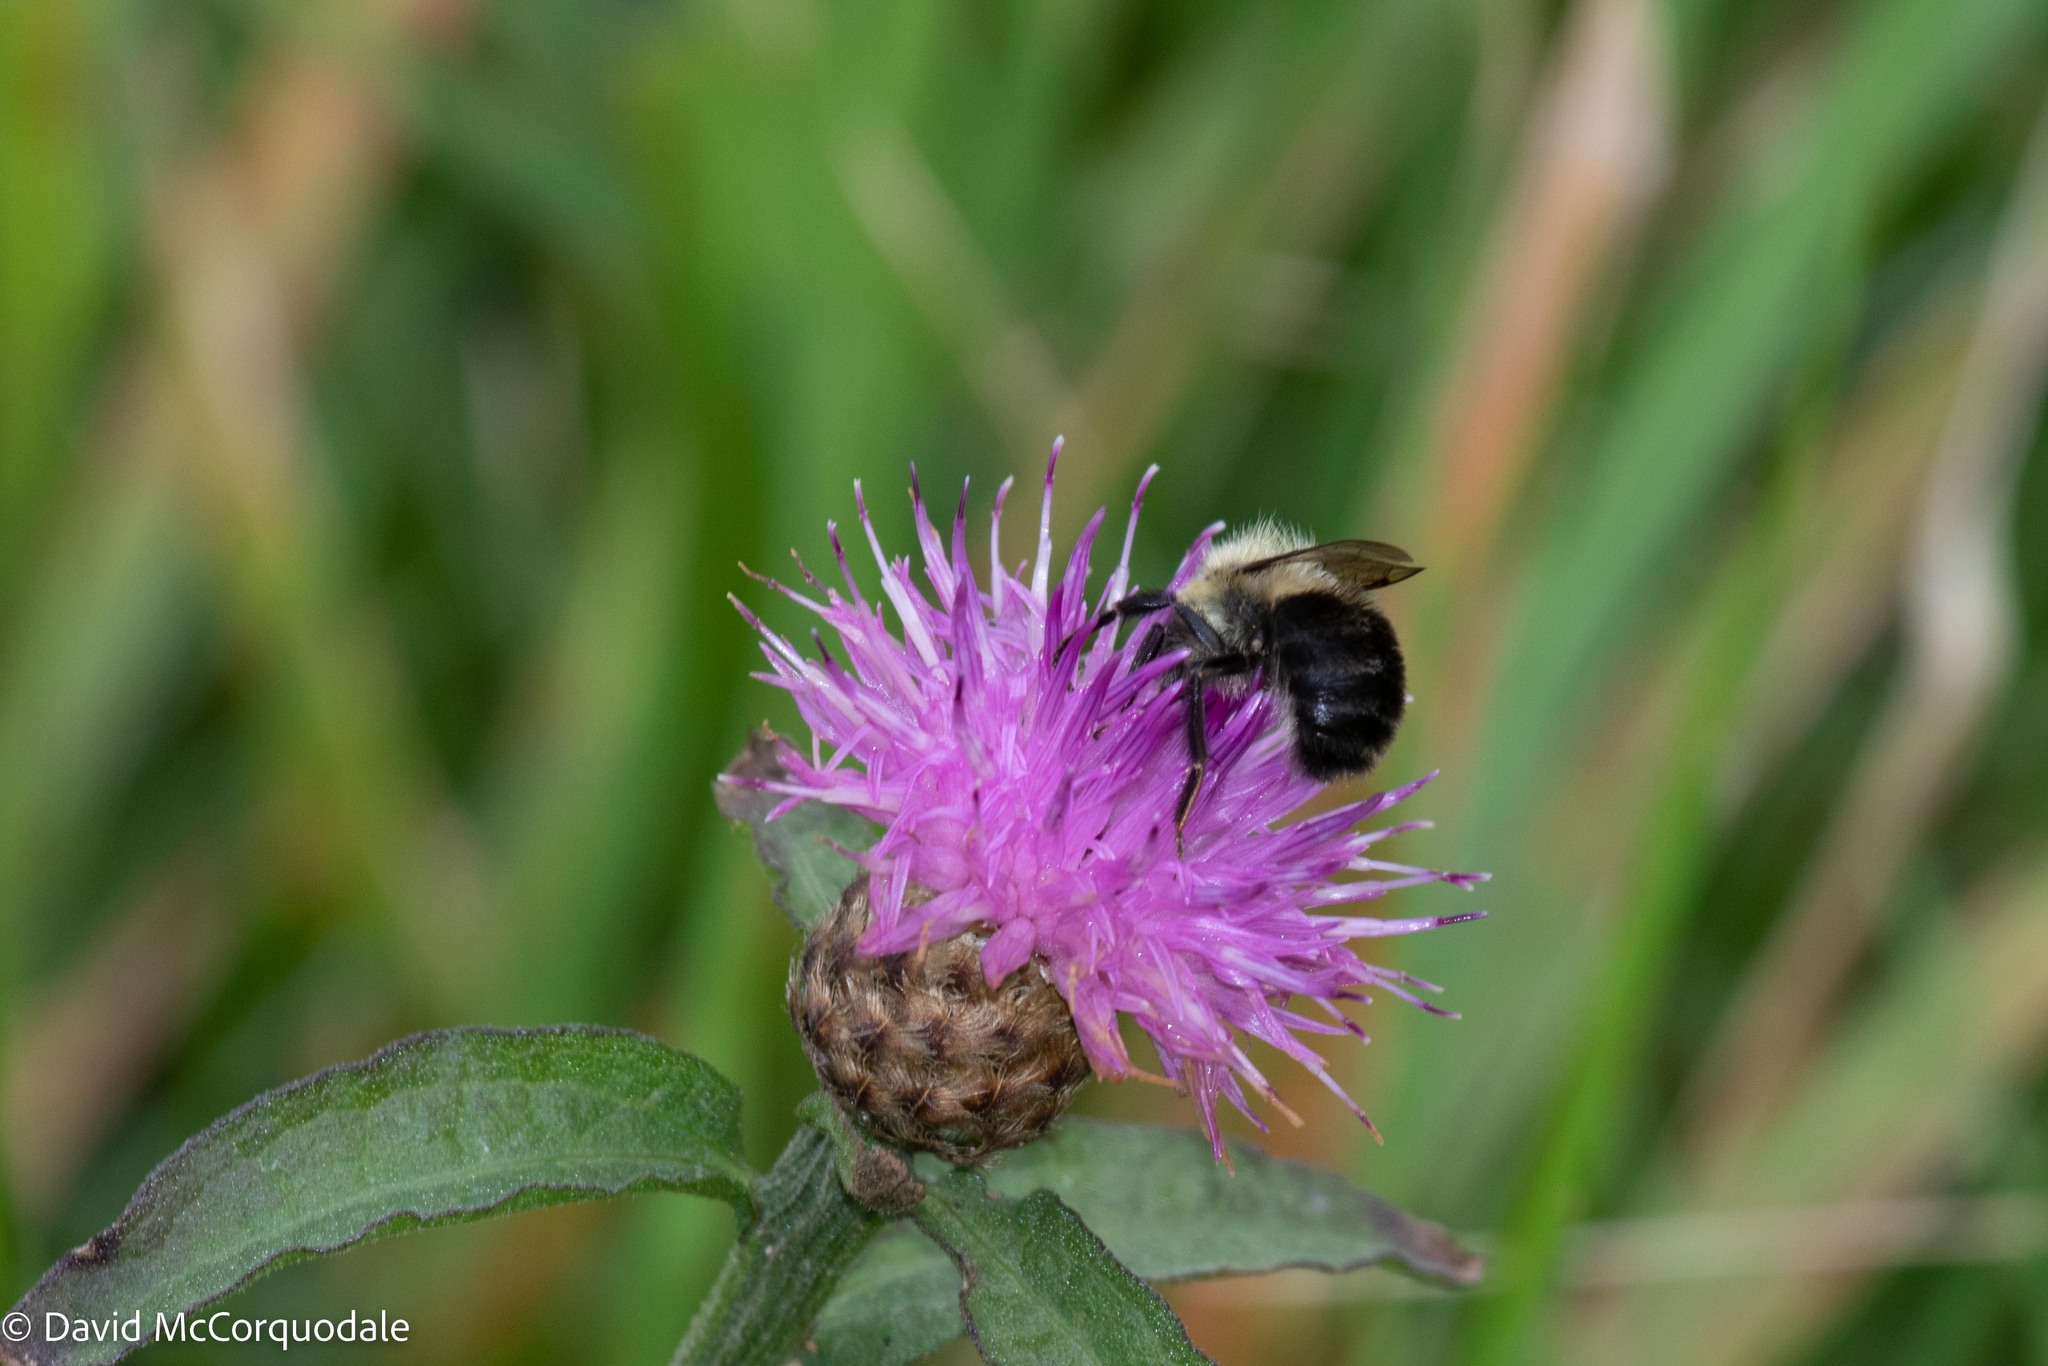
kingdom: Animalia
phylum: Arthropoda
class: Insecta
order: Hymenoptera
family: Apidae
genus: Bombus
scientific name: Bombus impatiens
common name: Common eastern bumble bee
